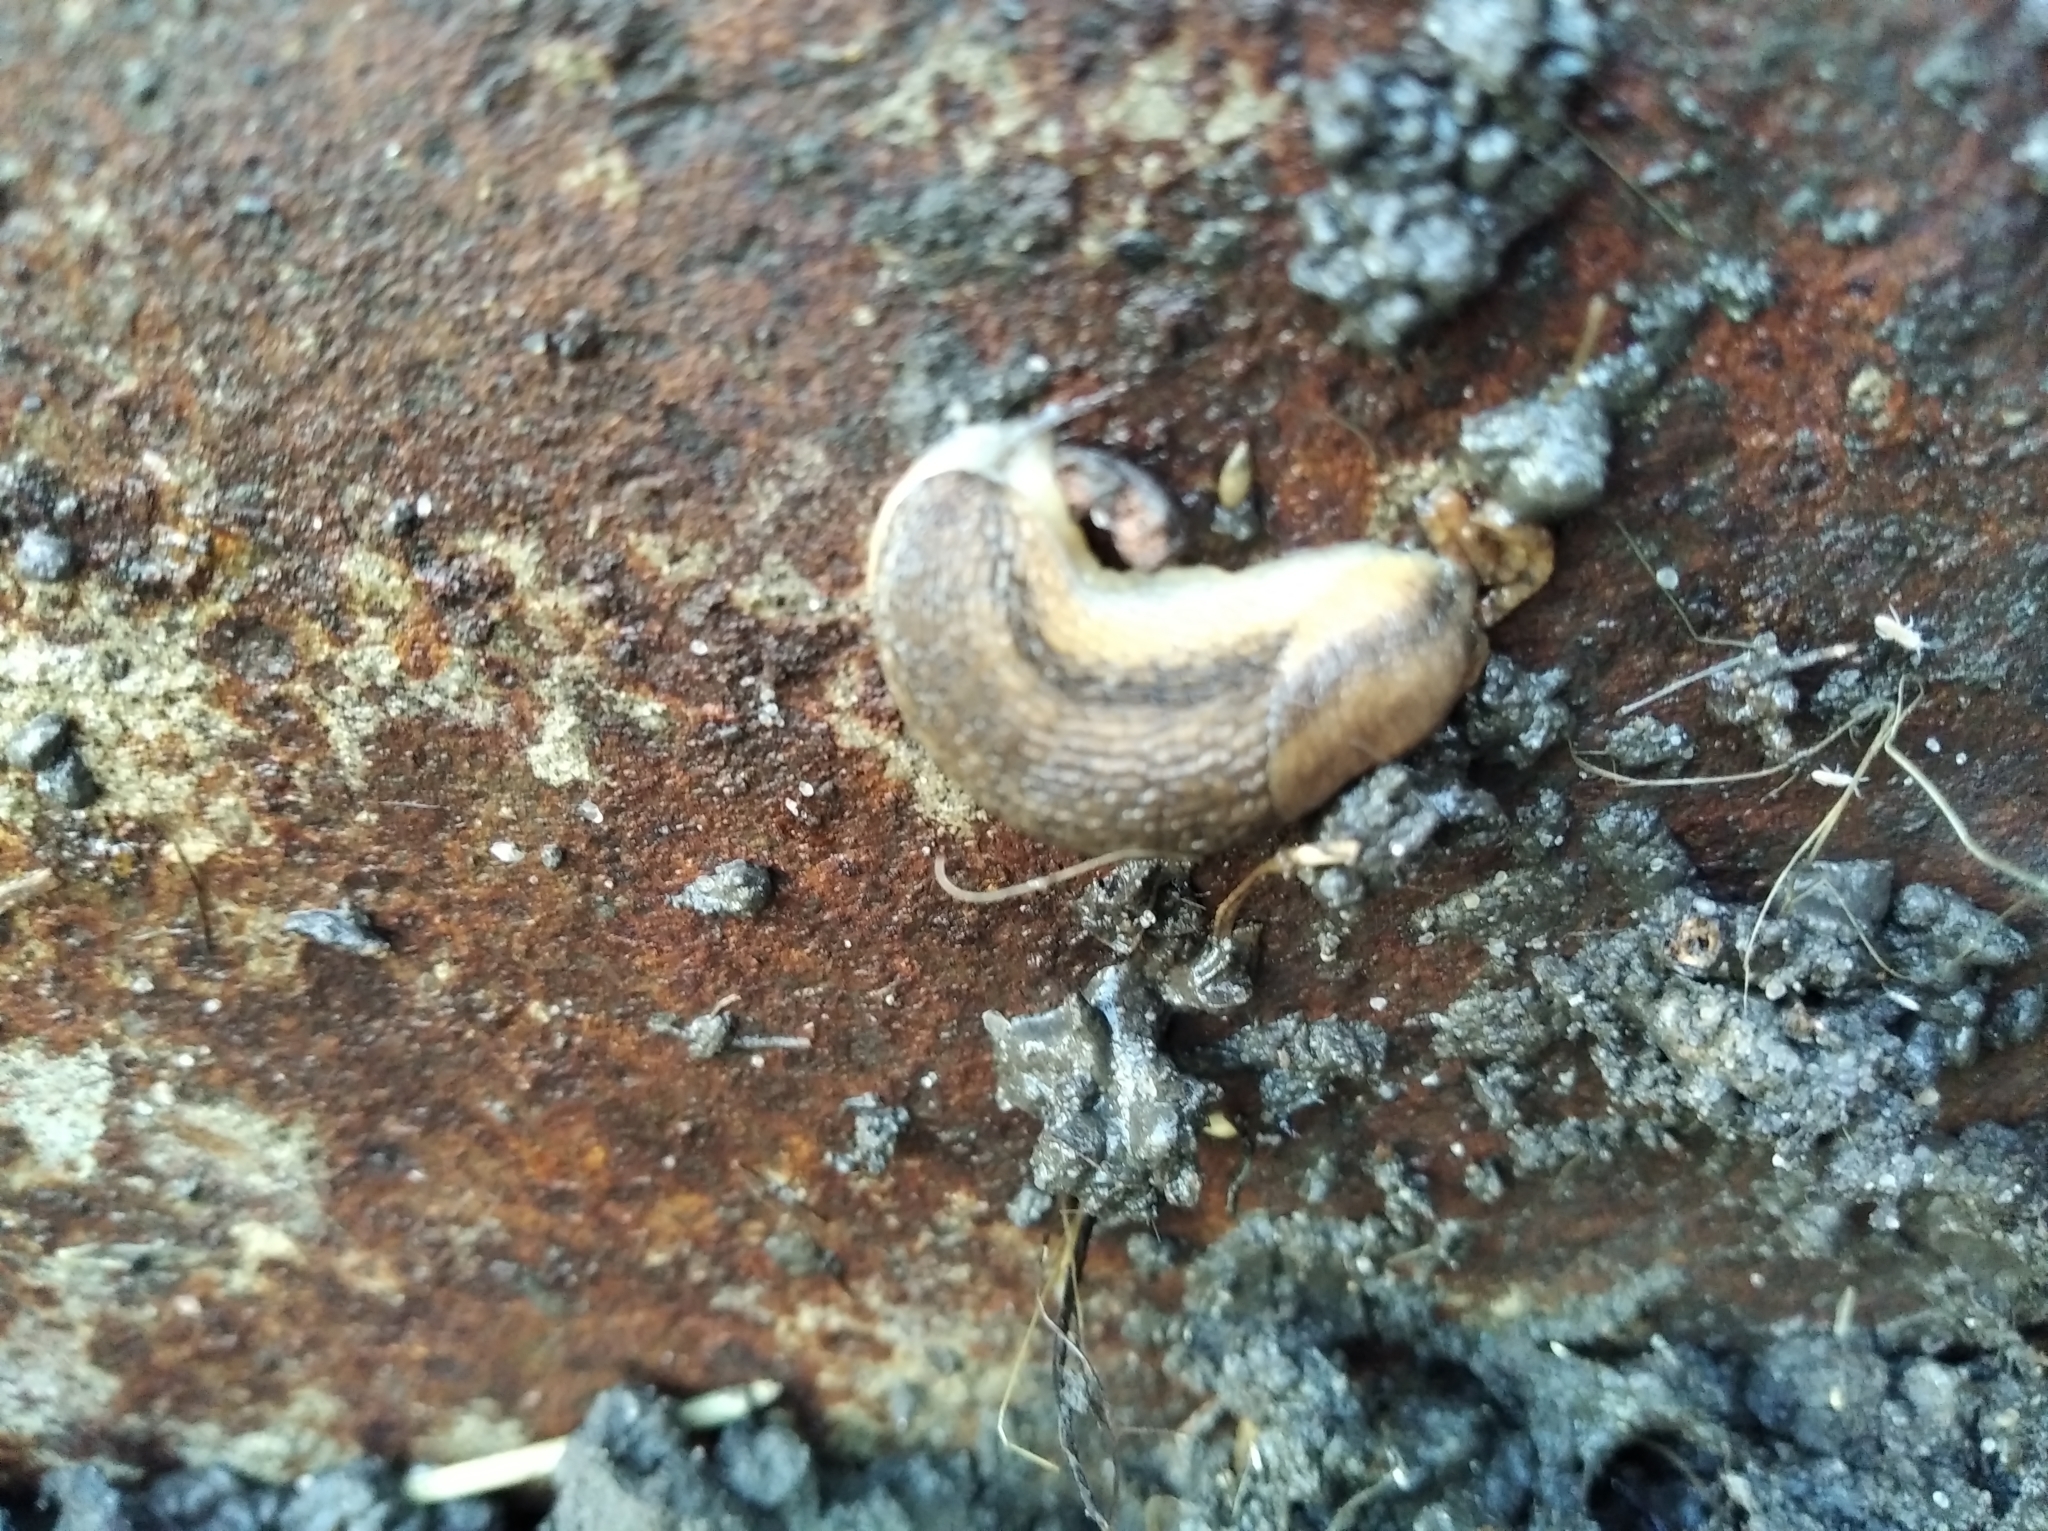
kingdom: Animalia
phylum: Mollusca
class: Gastropoda
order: Stylommatophora
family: Arionidae
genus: Arion
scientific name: Arion fasciatus
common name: Orange-banded arion
